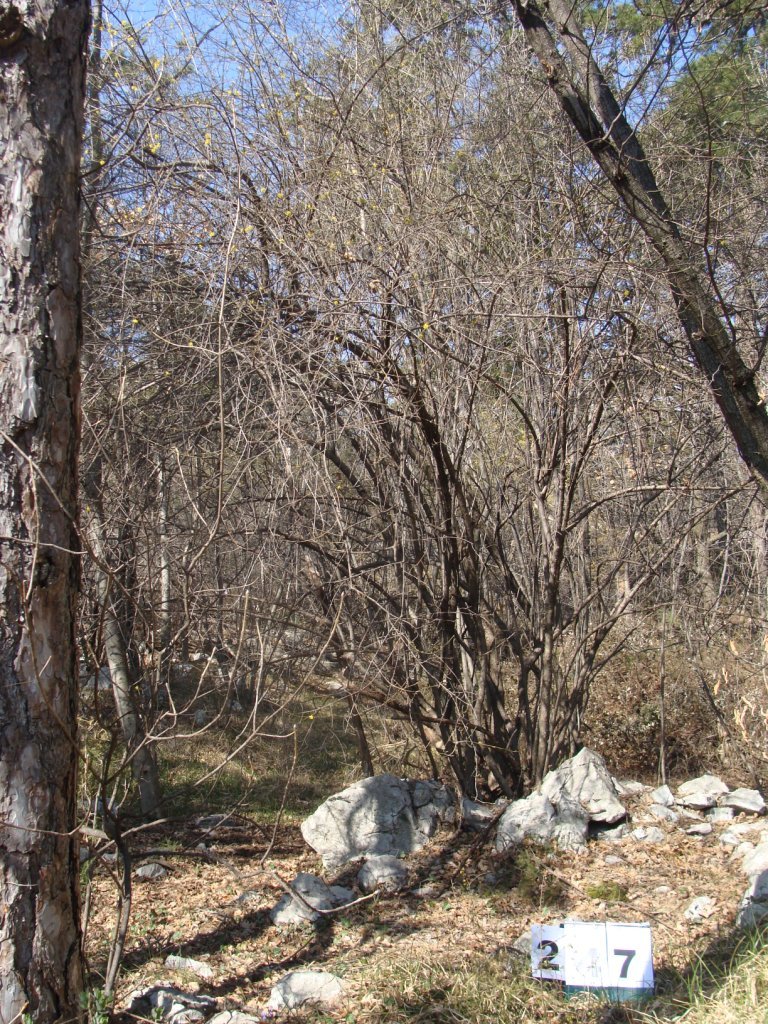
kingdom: Plantae
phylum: Tracheophyta
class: Magnoliopsida
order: Cornales
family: Cornaceae
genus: Cornus
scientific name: Cornus mas
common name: Cornelian-cherry
